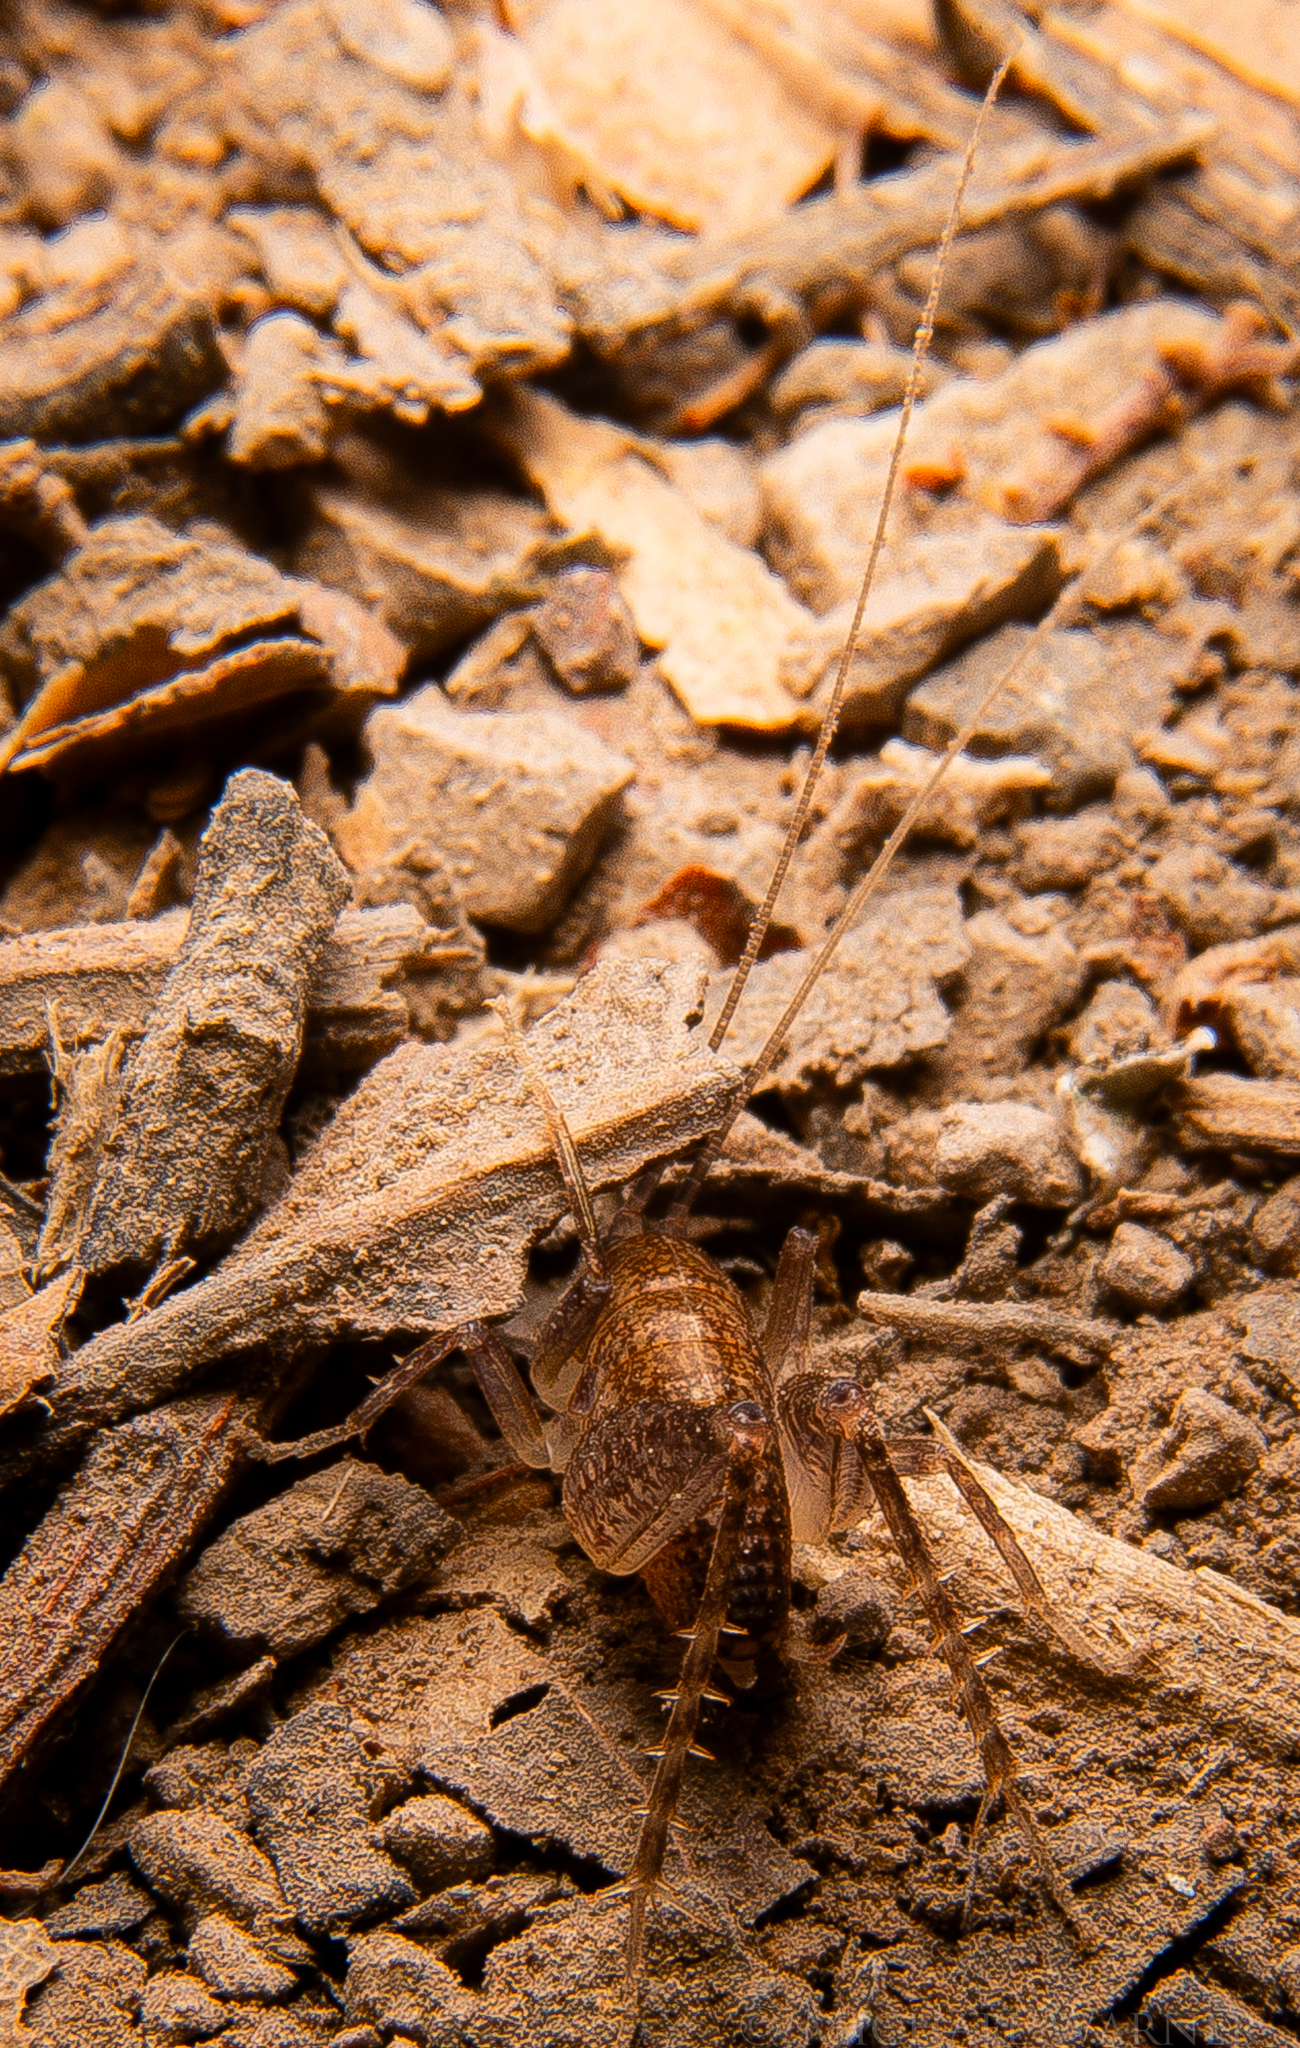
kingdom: Animalia
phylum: Arthropoda
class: Insecta
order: Orthoptera
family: Rhaphidophoridae
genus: Ceuthophilus
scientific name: Ceuthophilus californianus
